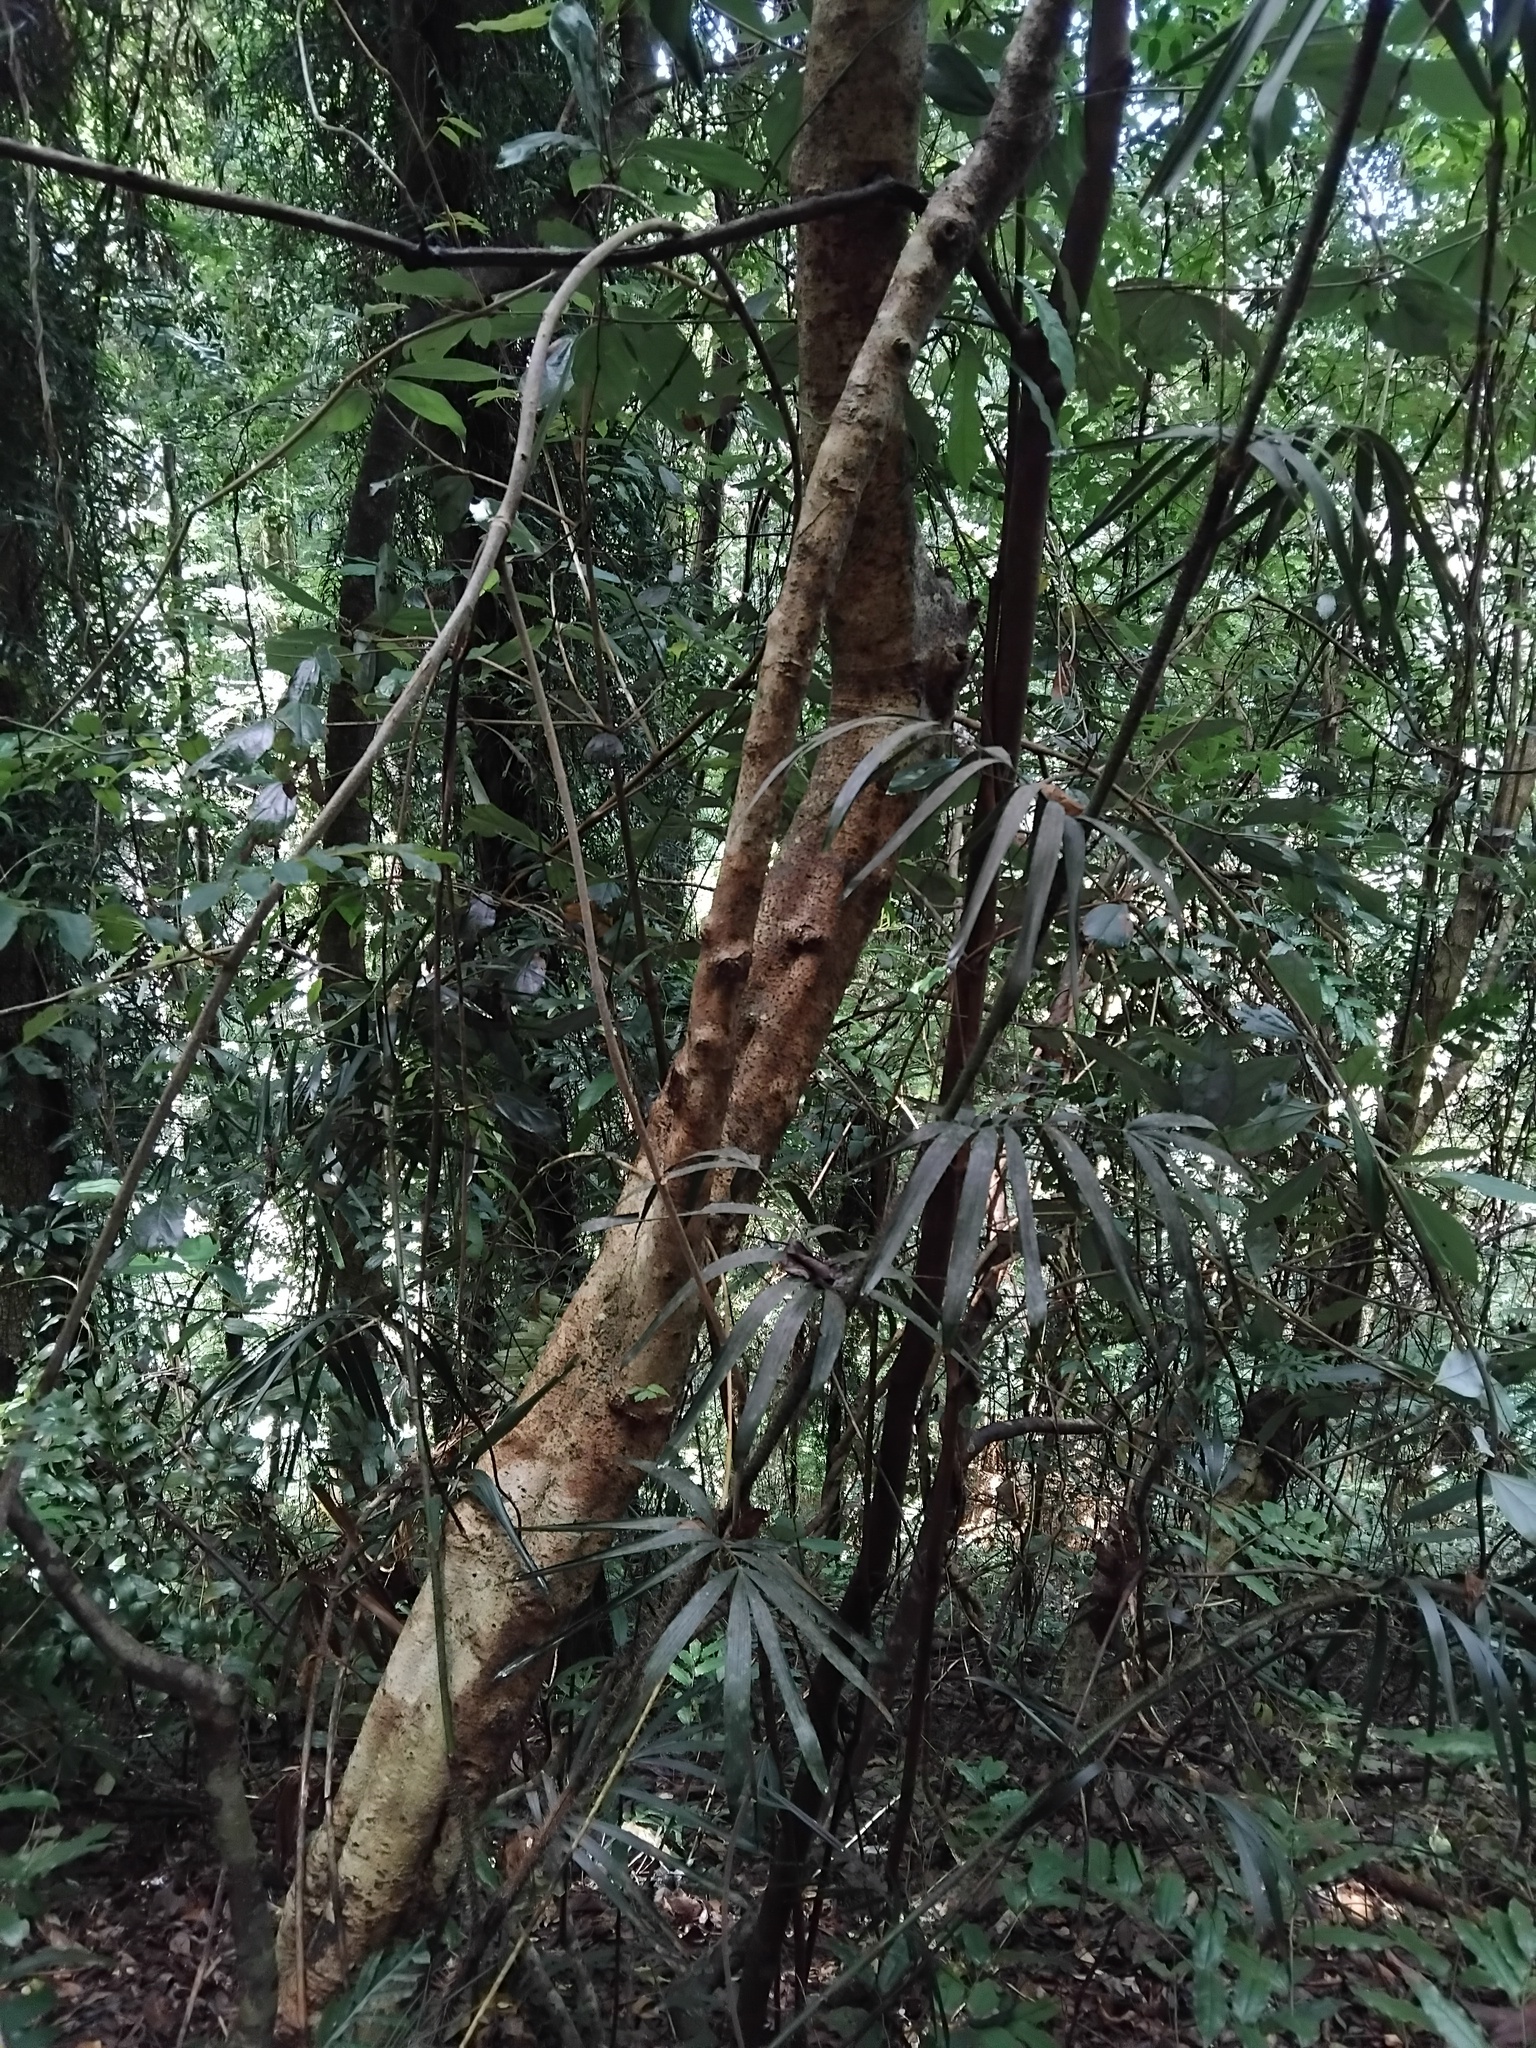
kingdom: Plantae
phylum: Tracheophyta
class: Liliopsida
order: Arecales
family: Arecaceae
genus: Calamus
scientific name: Calamus muelleri
